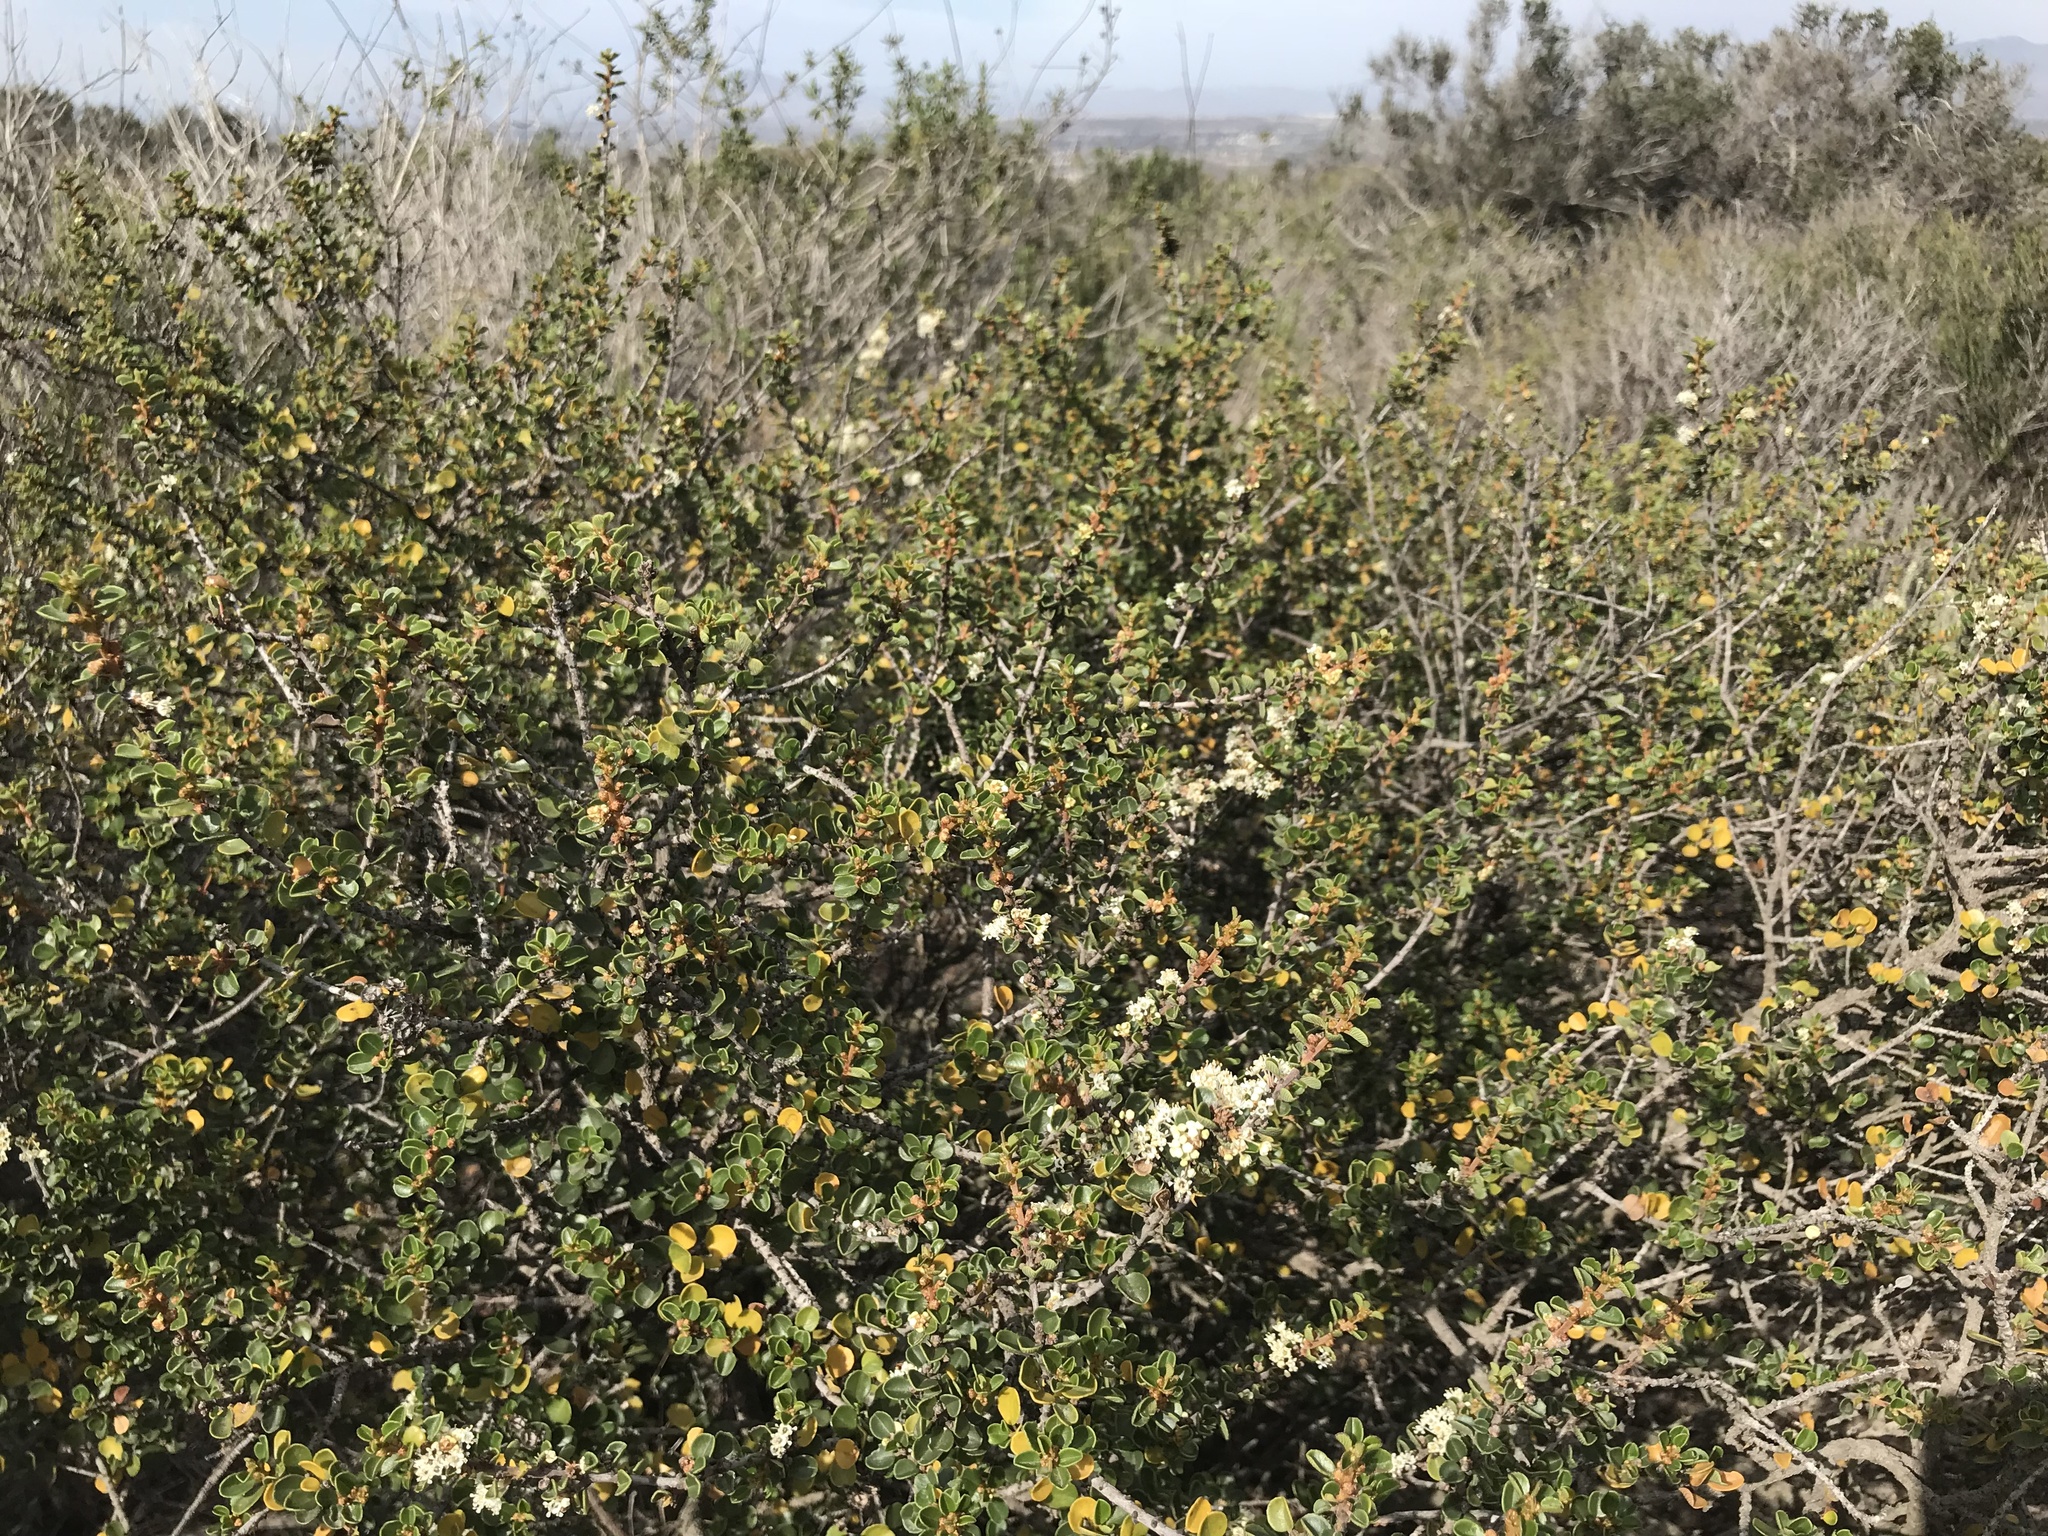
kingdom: Plantae
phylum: Tracheophyta
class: Magnoliopsida
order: Rosales
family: Rhamnaceae
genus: Ceanothus
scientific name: Ceanothus verrucosus
